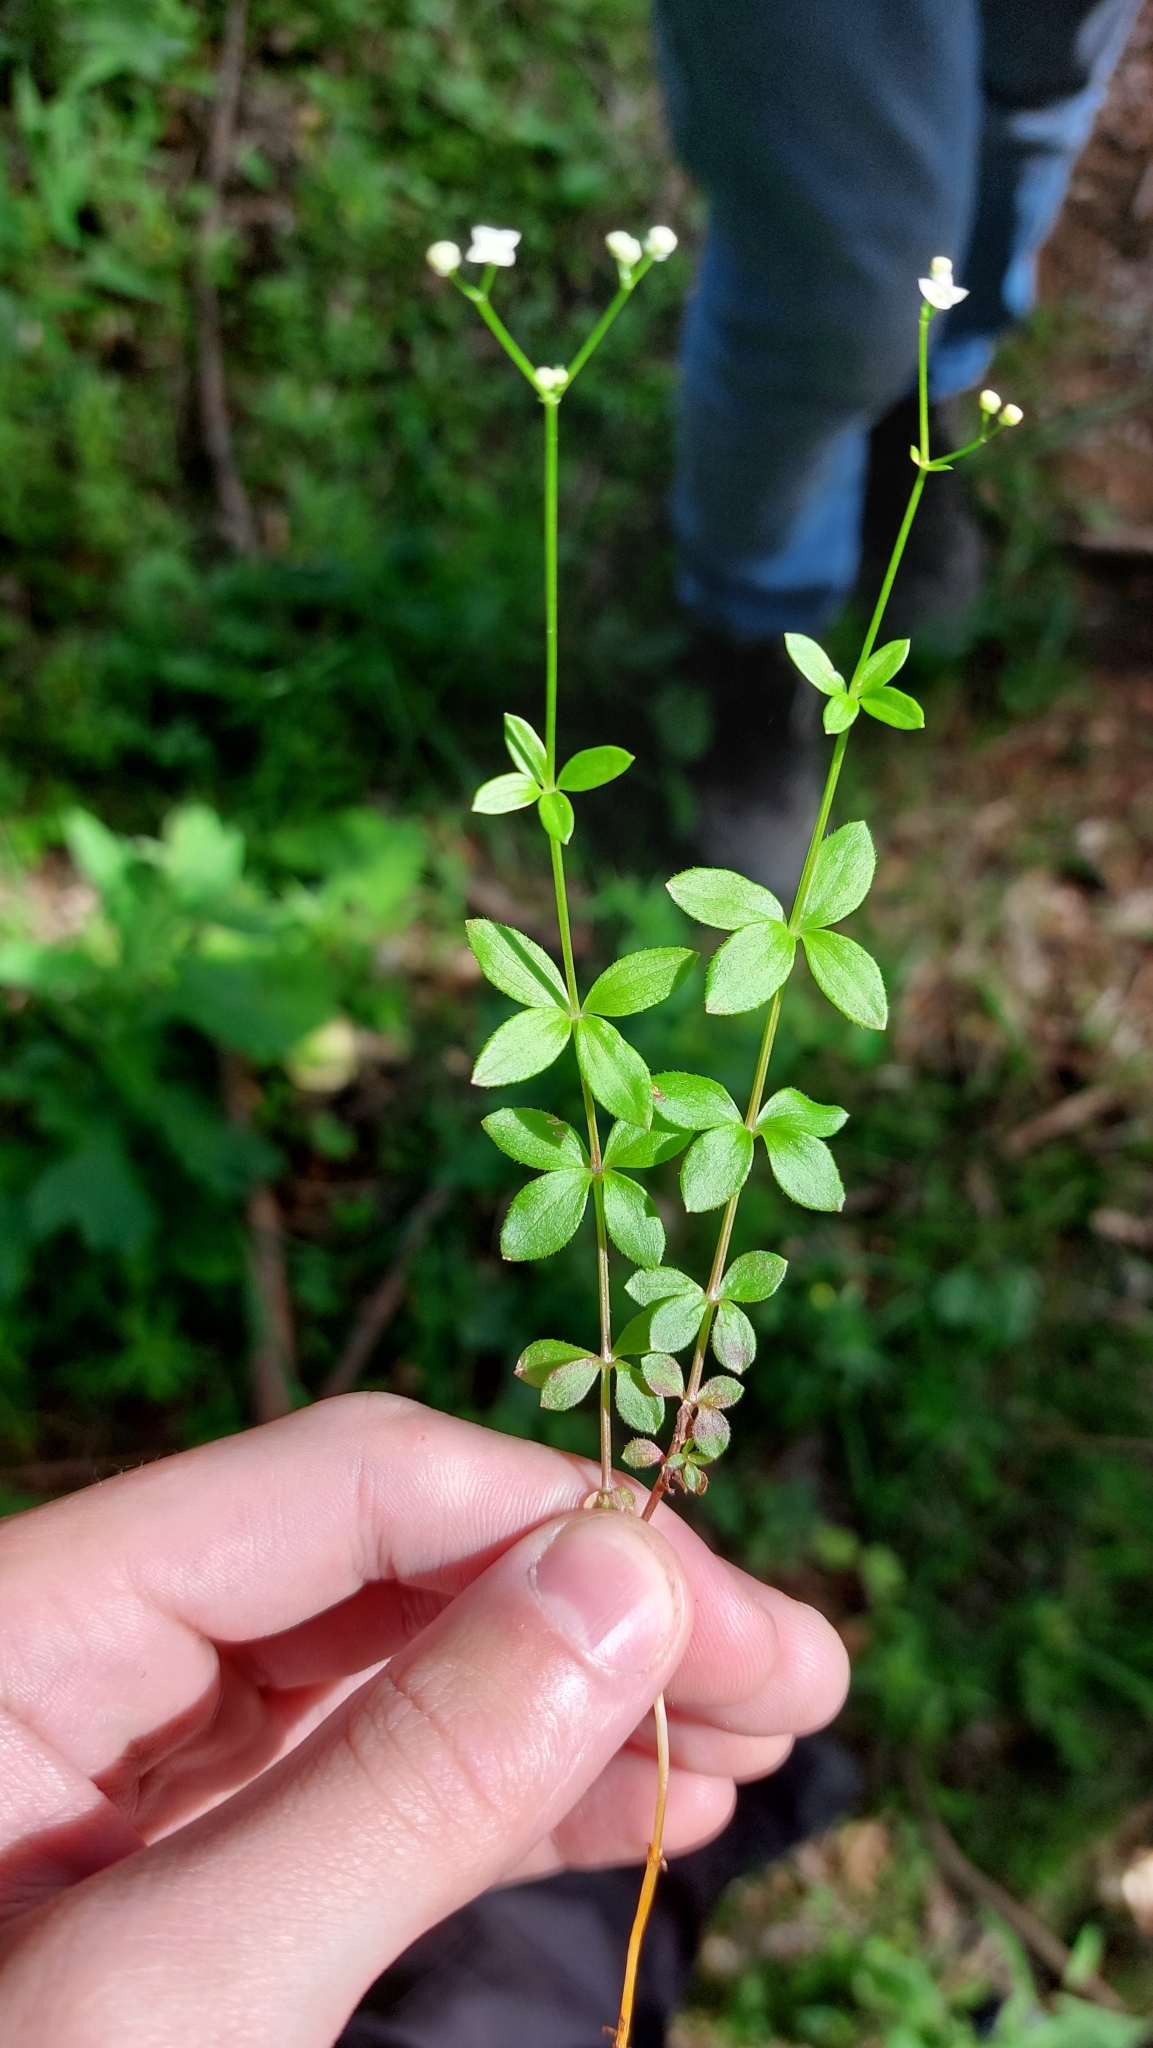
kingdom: Plantae
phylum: Tracheophyta
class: Magnoliopsida
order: Gentianales
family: Rubiaceae
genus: Galium
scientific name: Galium rotundifolium
